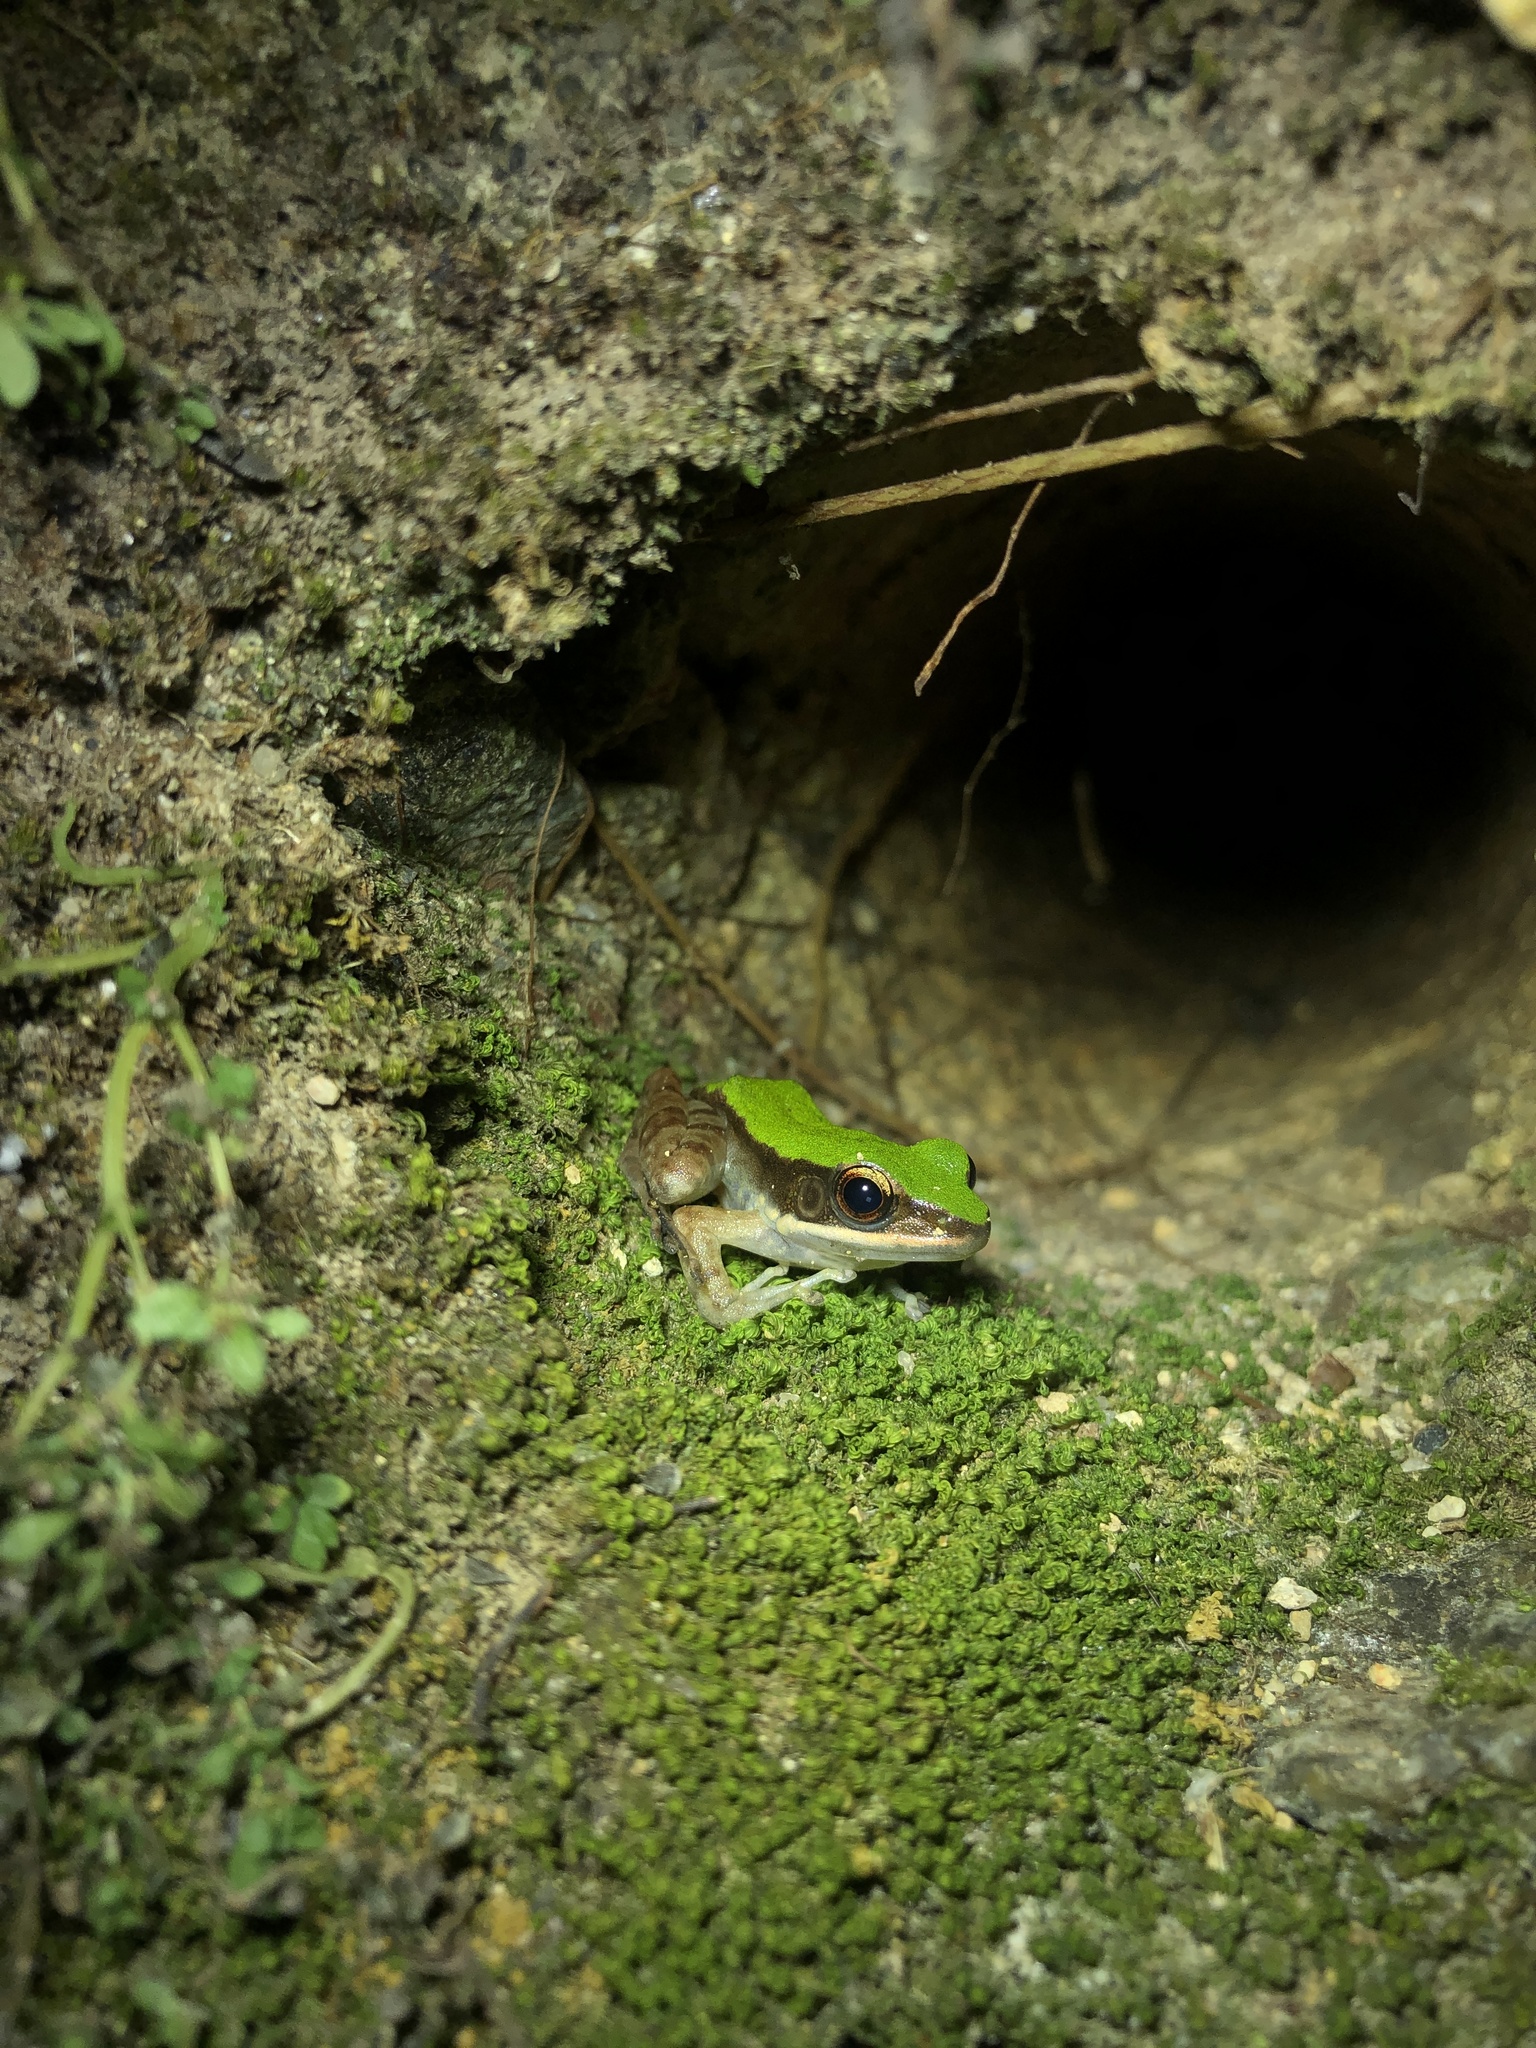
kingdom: Animalia
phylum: Chordata
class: Amphibia
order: Anura
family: Ranidae
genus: Odorrana
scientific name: Odorrana graminea
